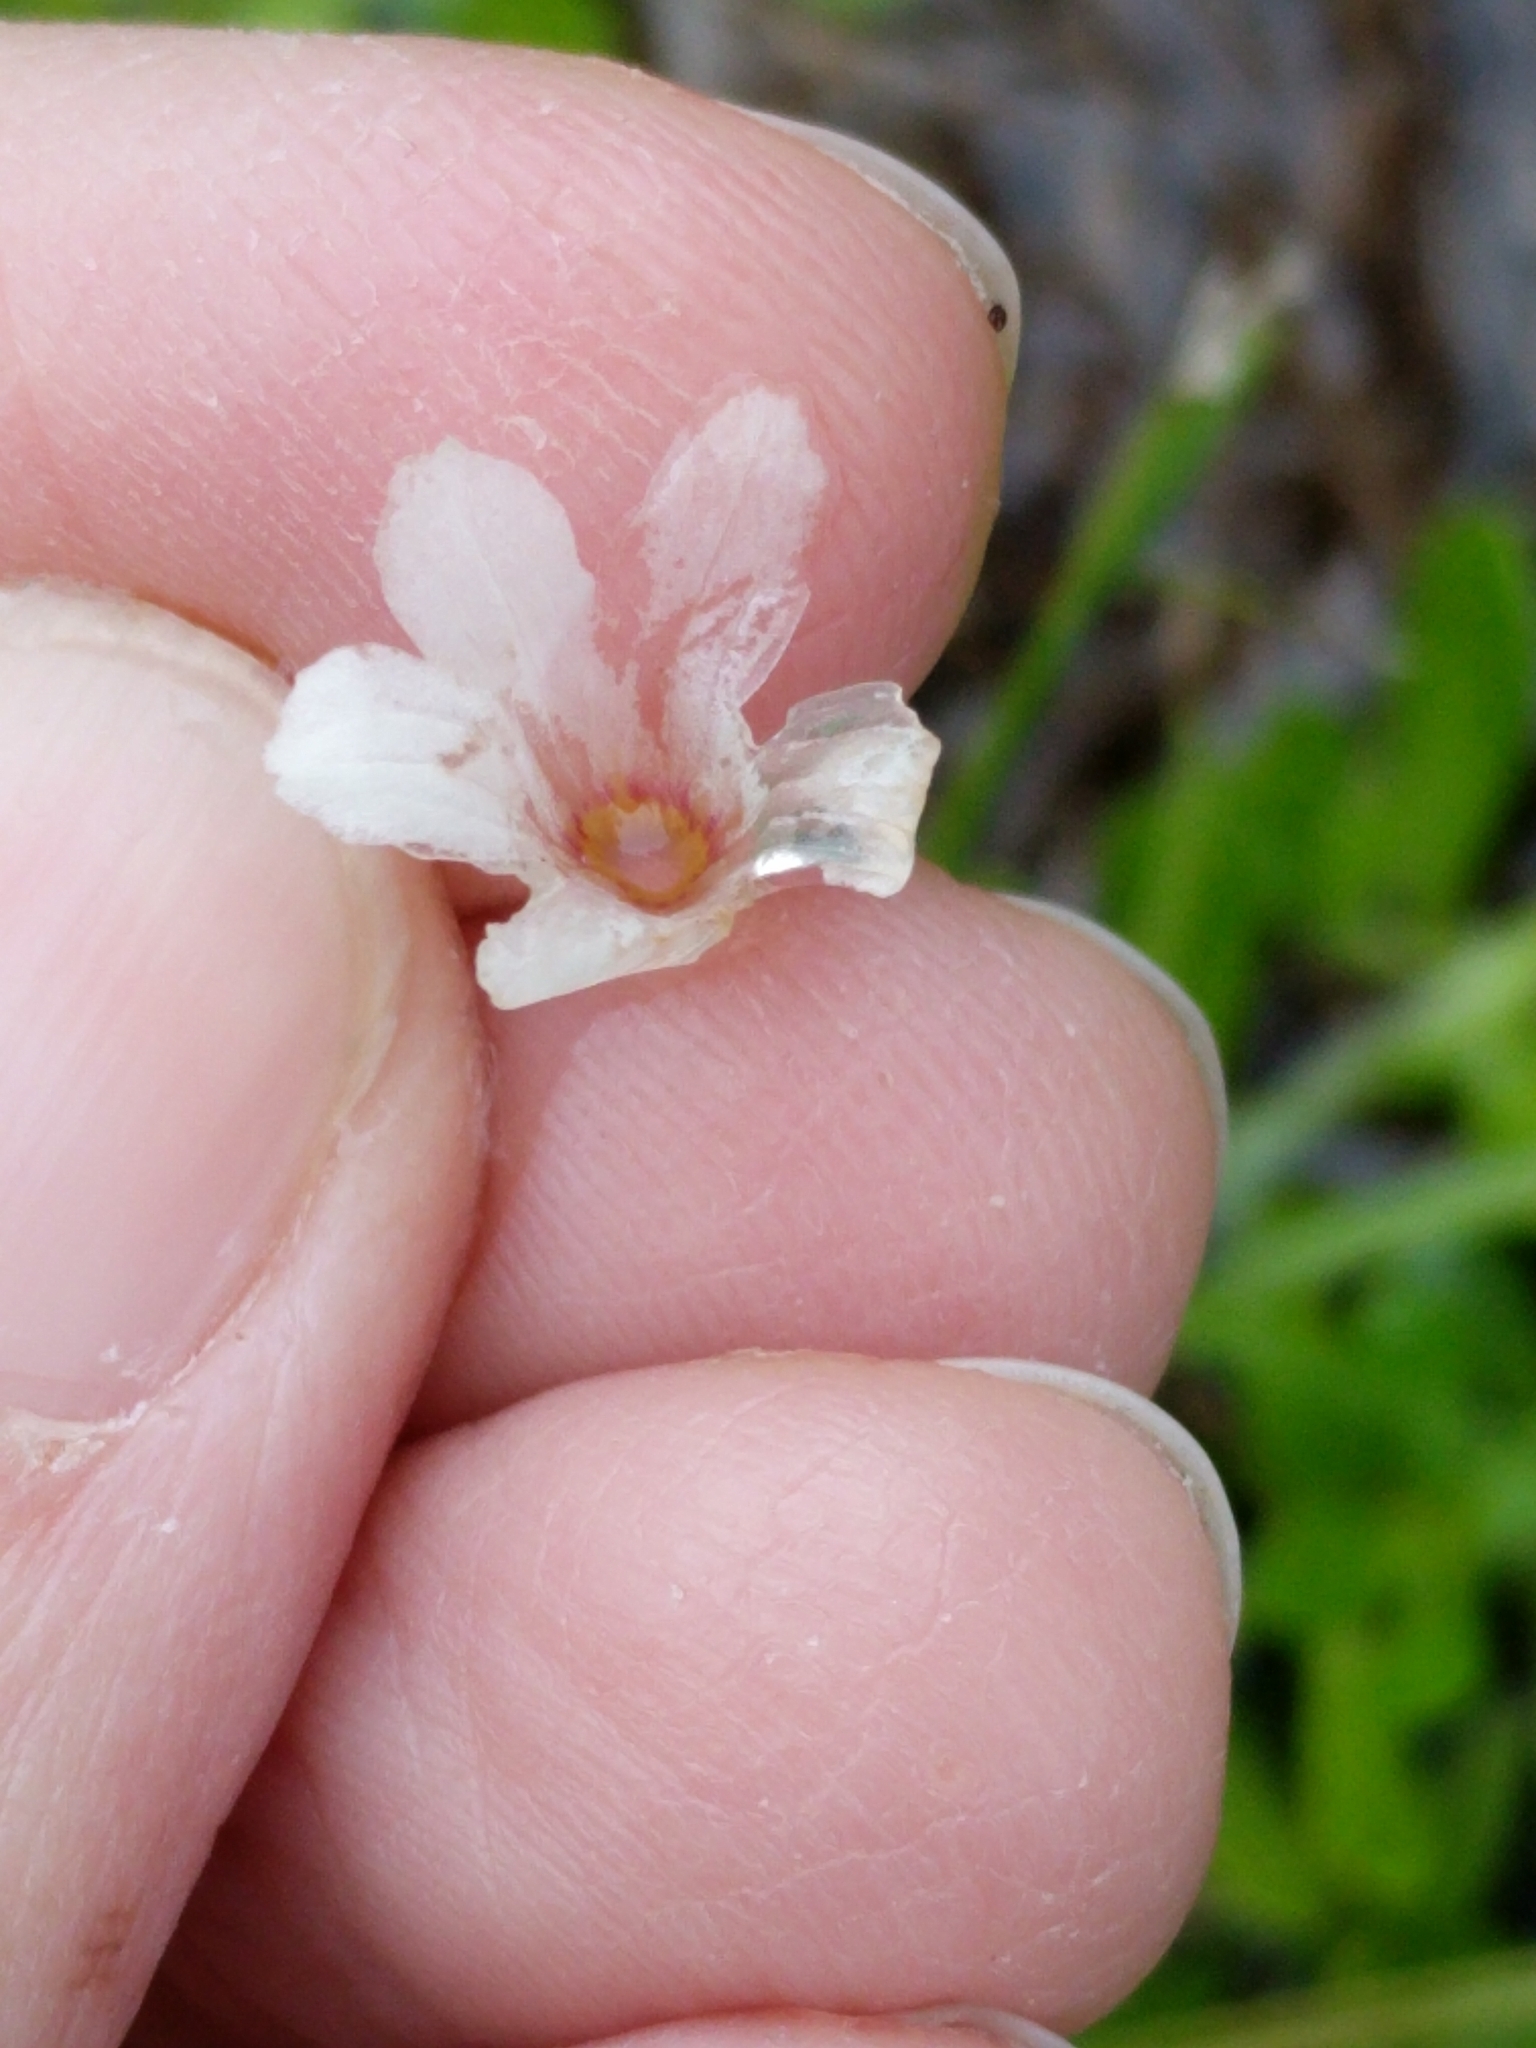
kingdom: Plantae
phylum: Tracheophyta
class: Magnoliopsida
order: Lamiales
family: Plantaginaceae
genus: Bacopa
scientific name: Bacopa monnieri
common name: Indian-pennywort
